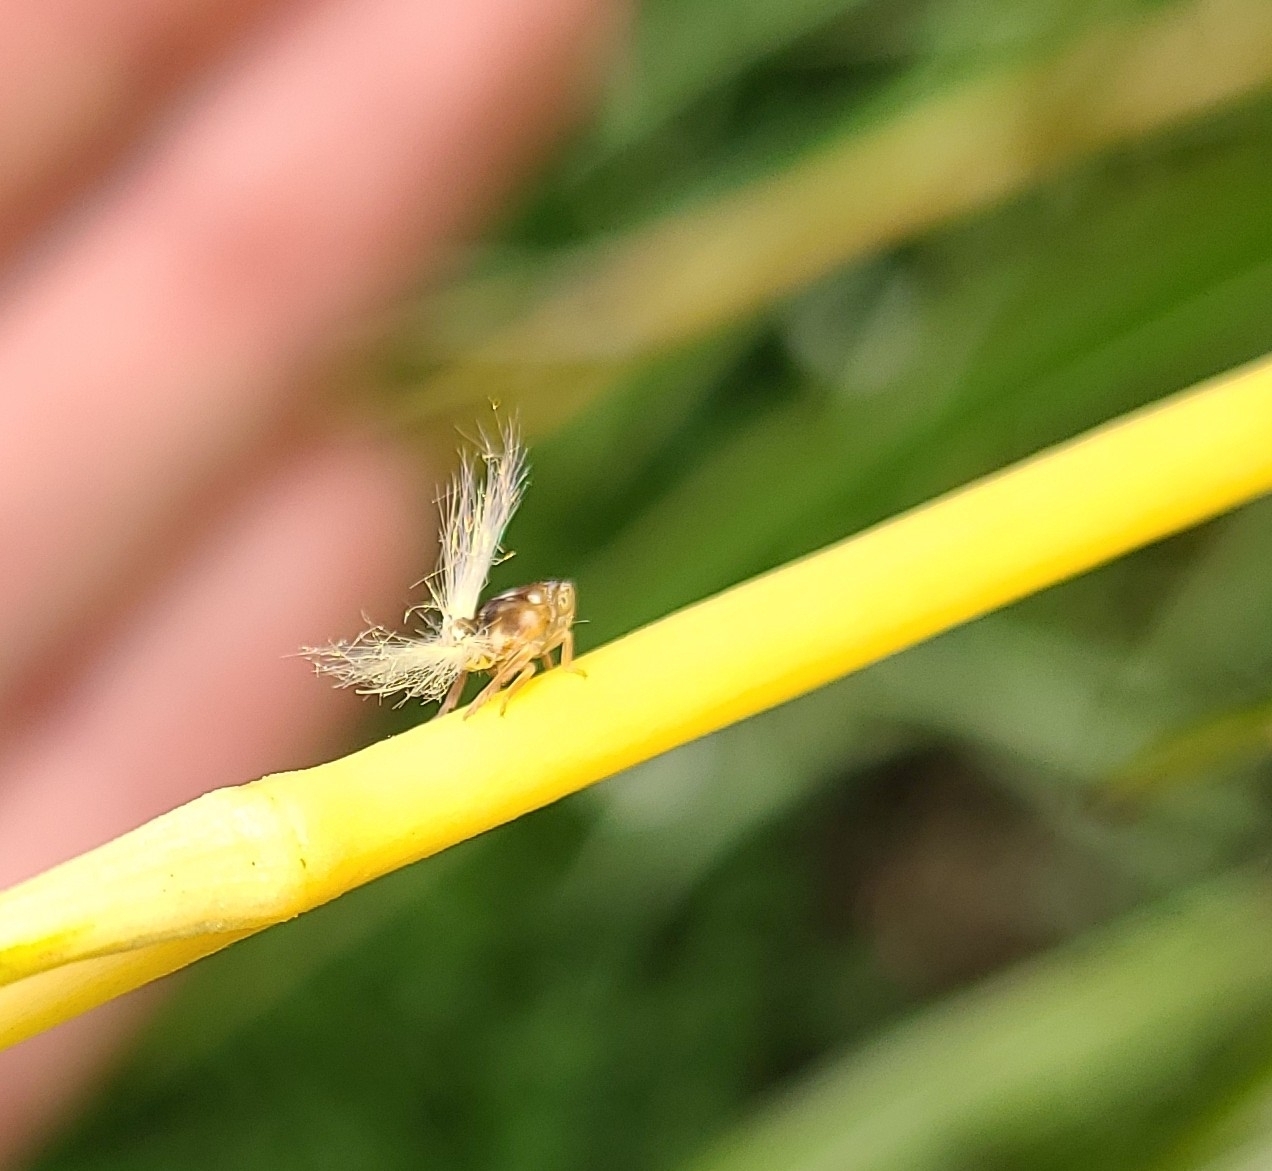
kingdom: Animalia
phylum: Arthropoda
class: Insecta
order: Hemiptera
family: Ricaniidae
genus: Scolypopa
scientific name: Scolypopa australis
